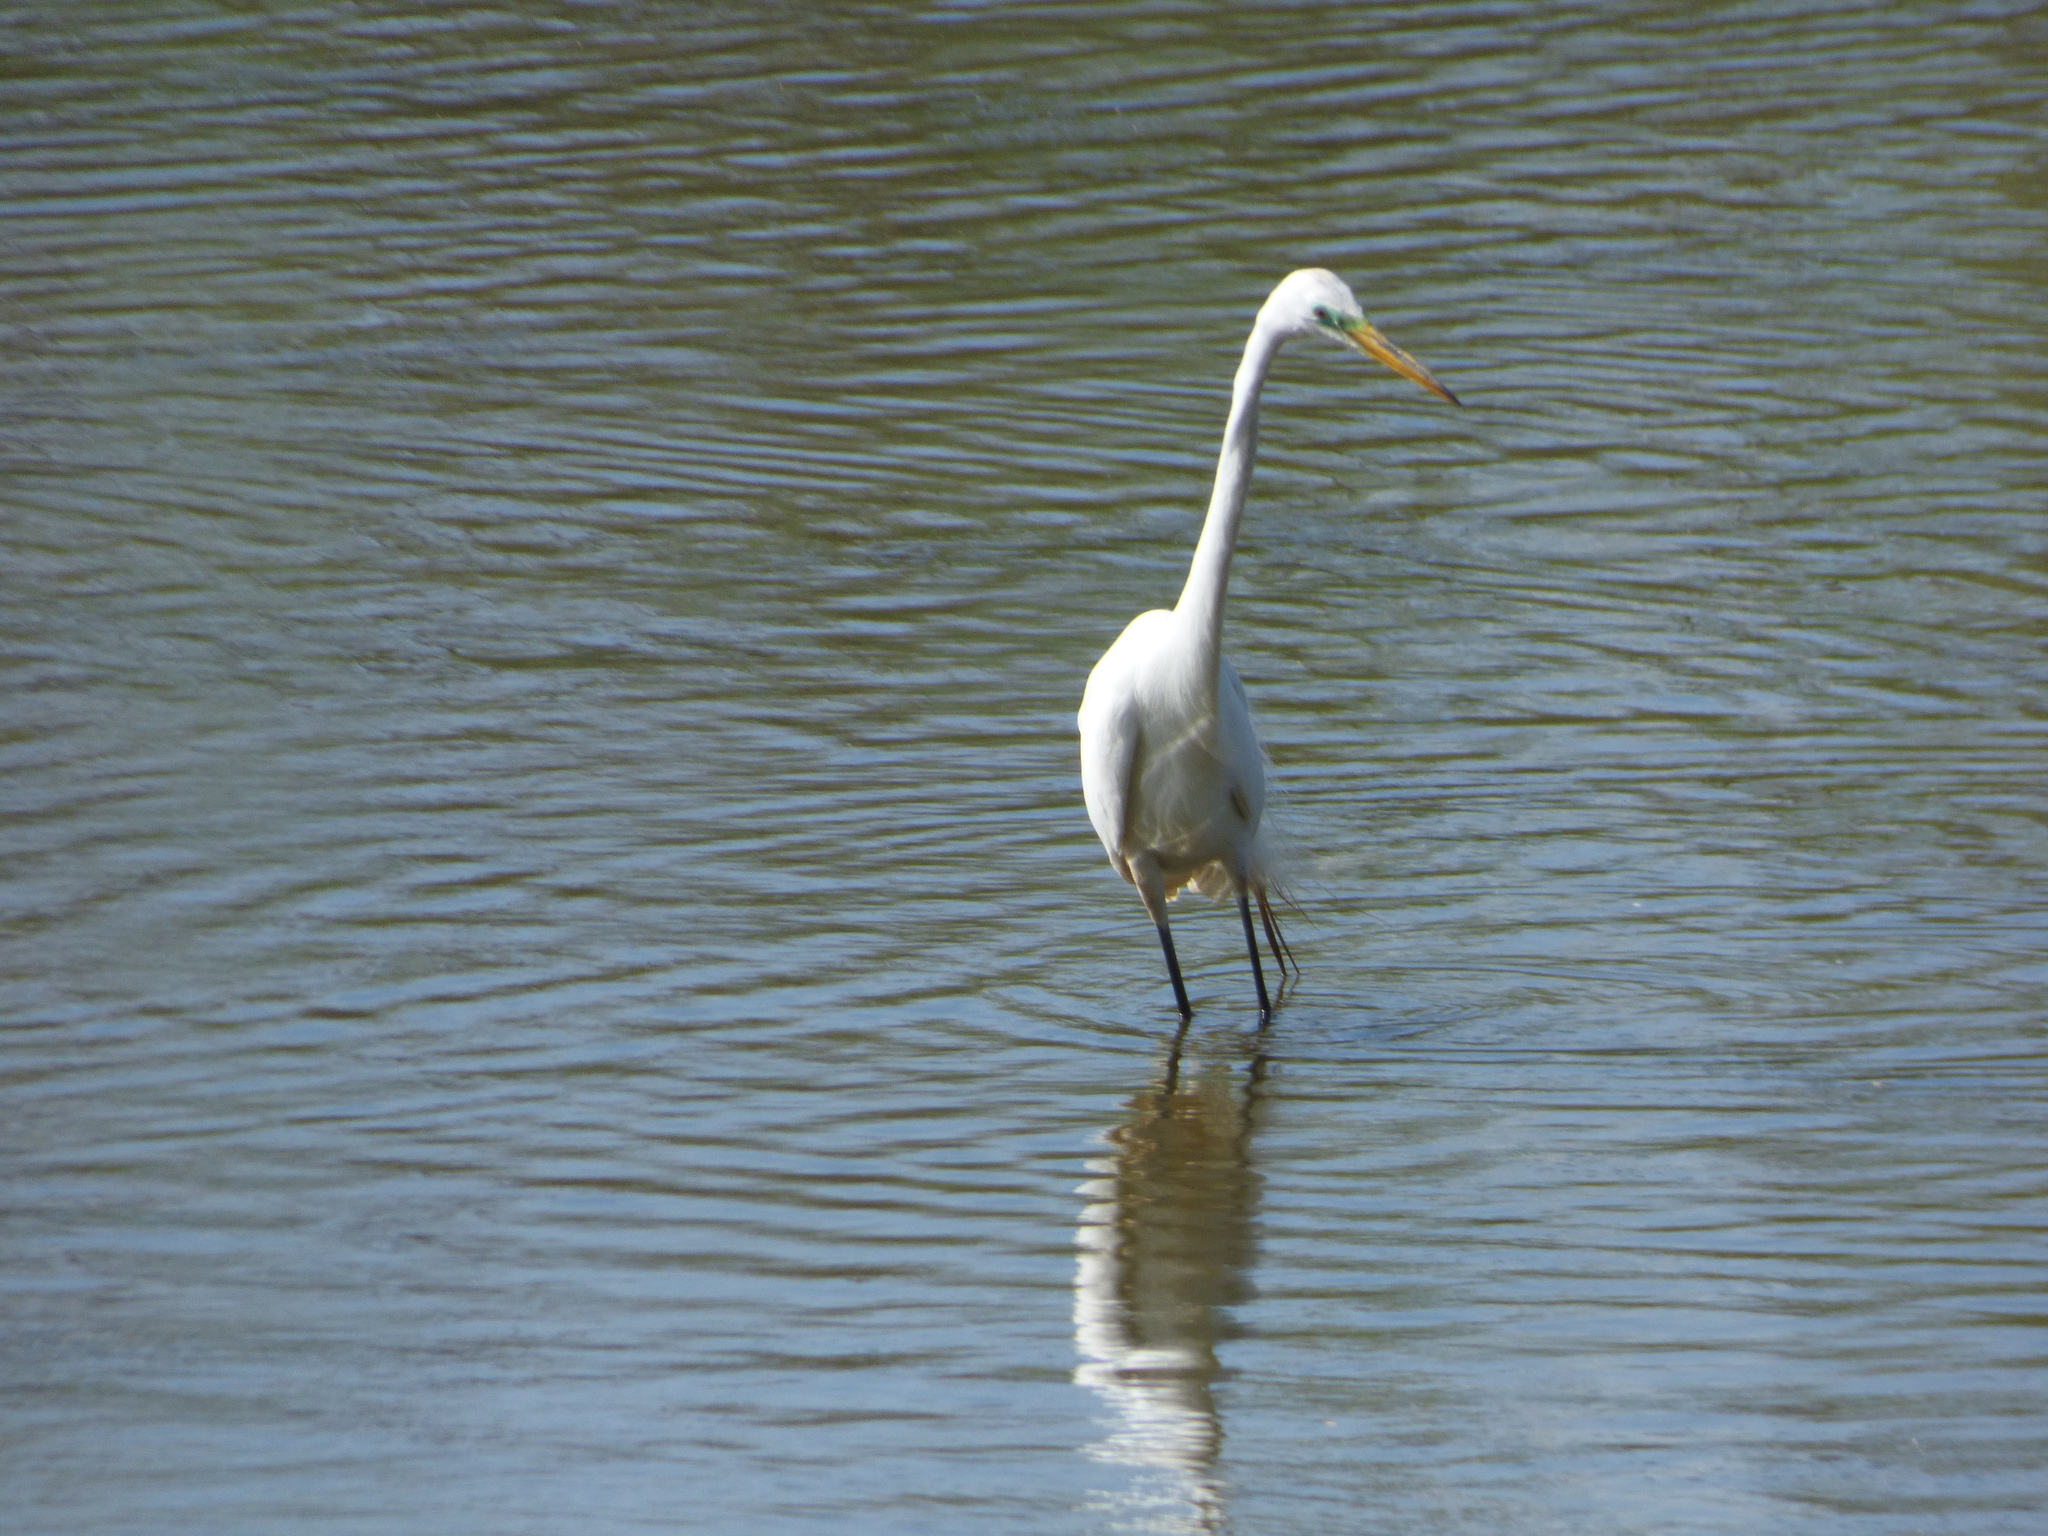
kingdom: Animalia
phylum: Chordata
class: Aves
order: Pelecaniformes
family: Ardeidae
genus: Ardea
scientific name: Ardea alba
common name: Great egret
